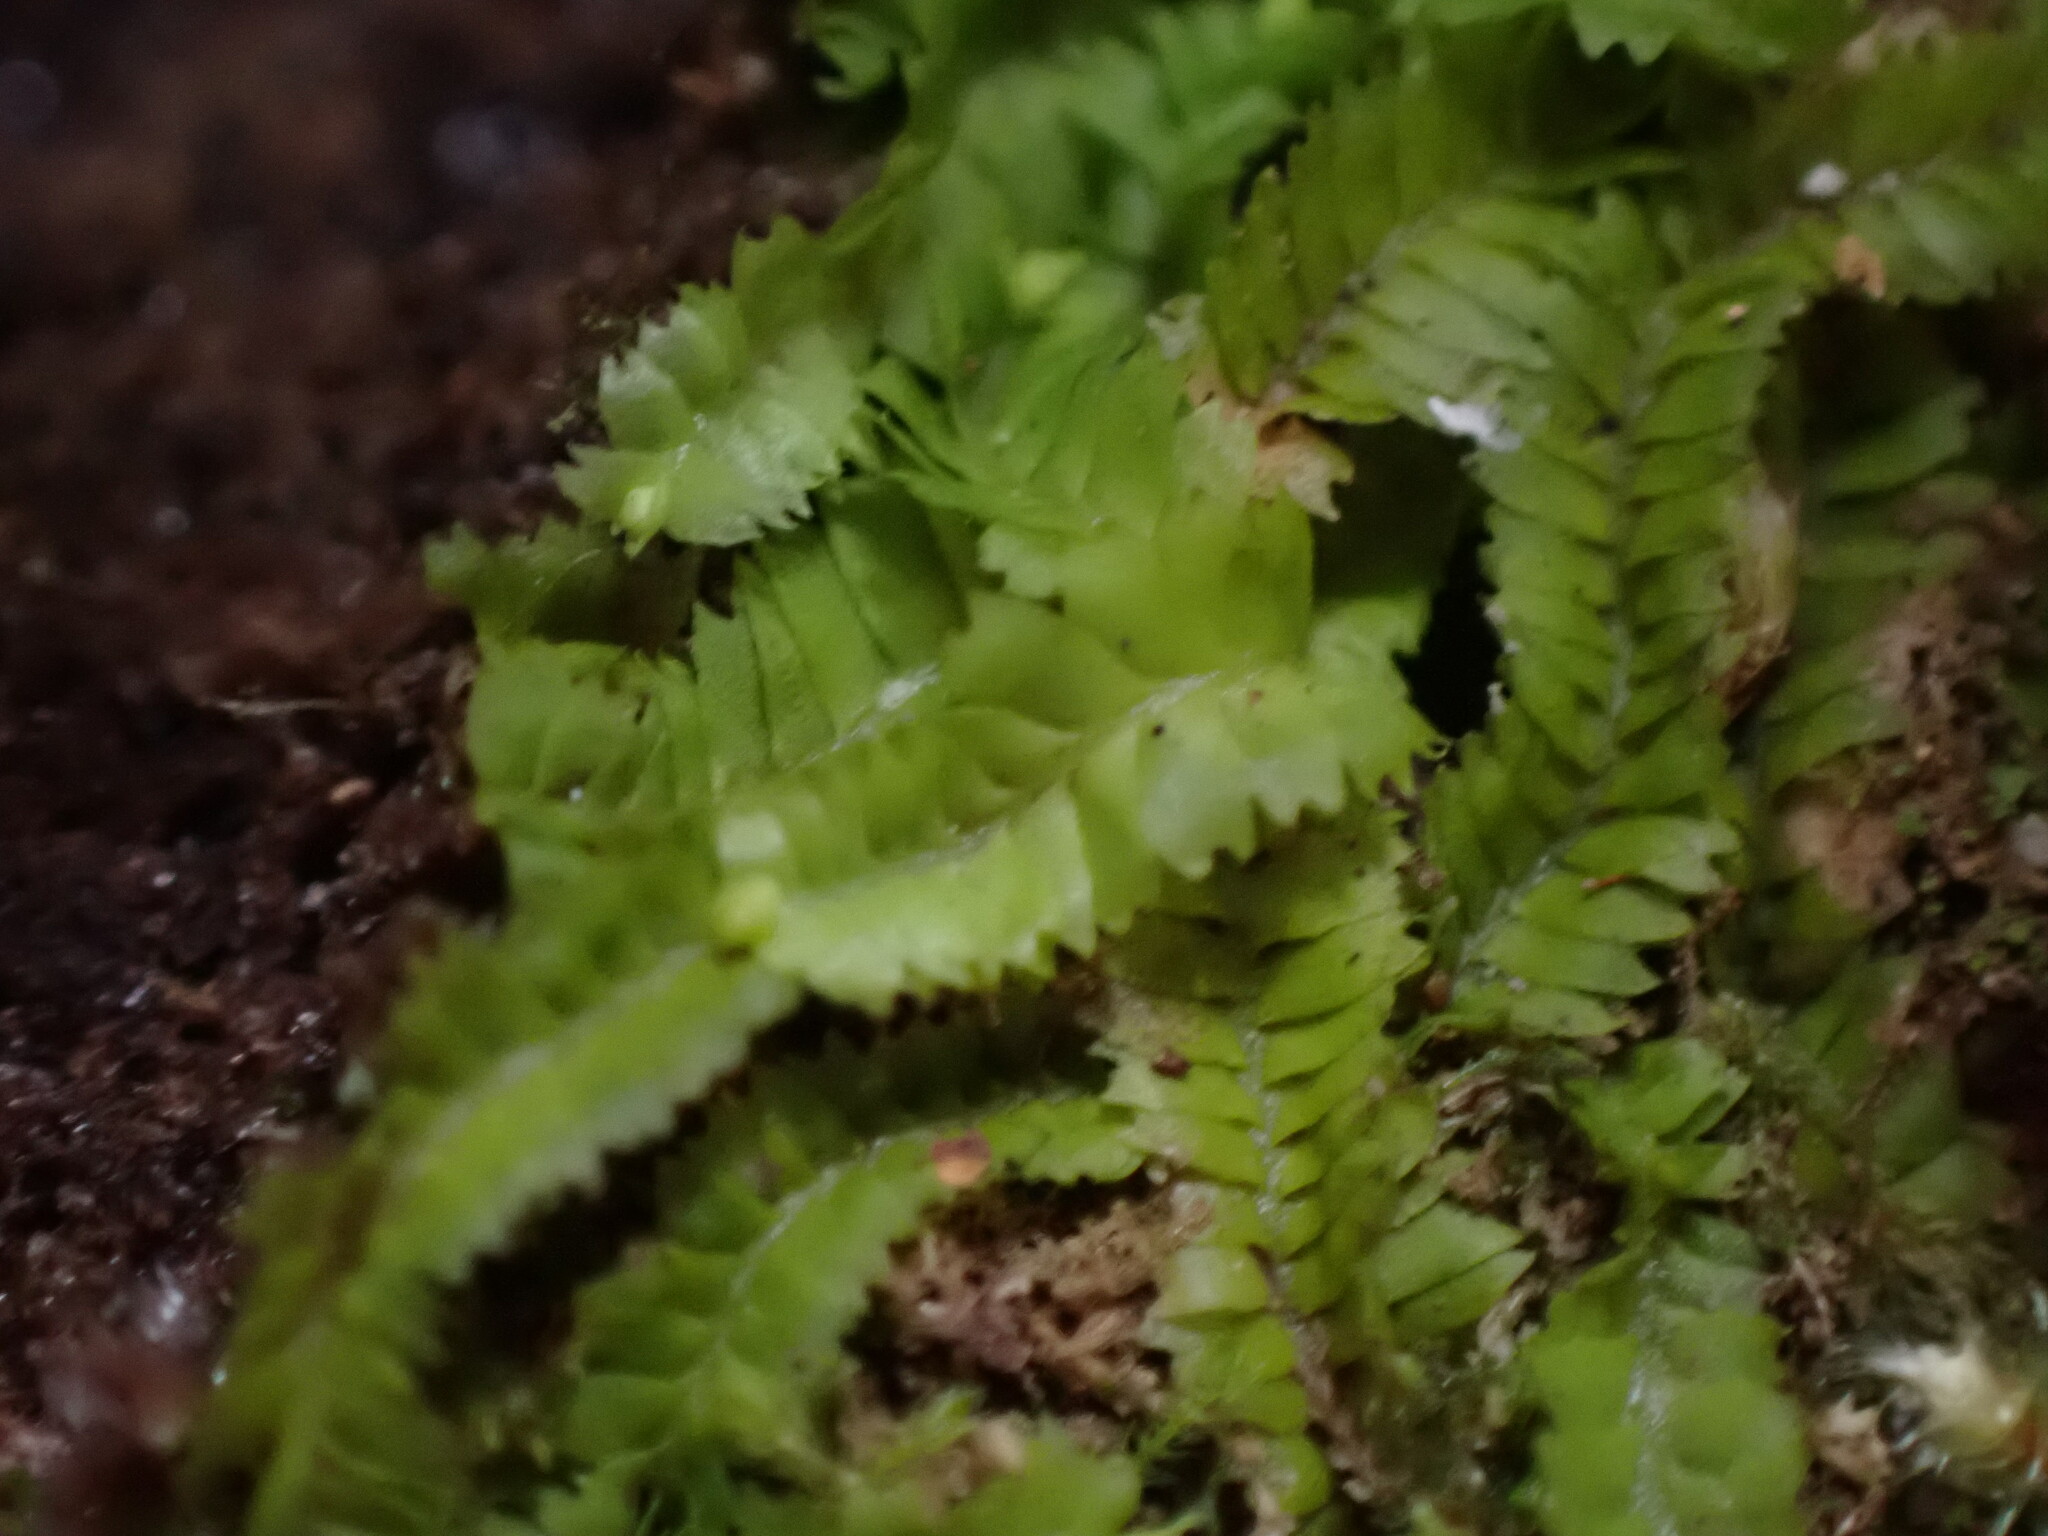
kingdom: Plantae
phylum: Marchantiophyta
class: Jungermanniopsida
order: Jungermanniales
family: Geocalycaceae
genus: Geocalyx
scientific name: Geocalyx graveolens
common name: Turps pouchwort
